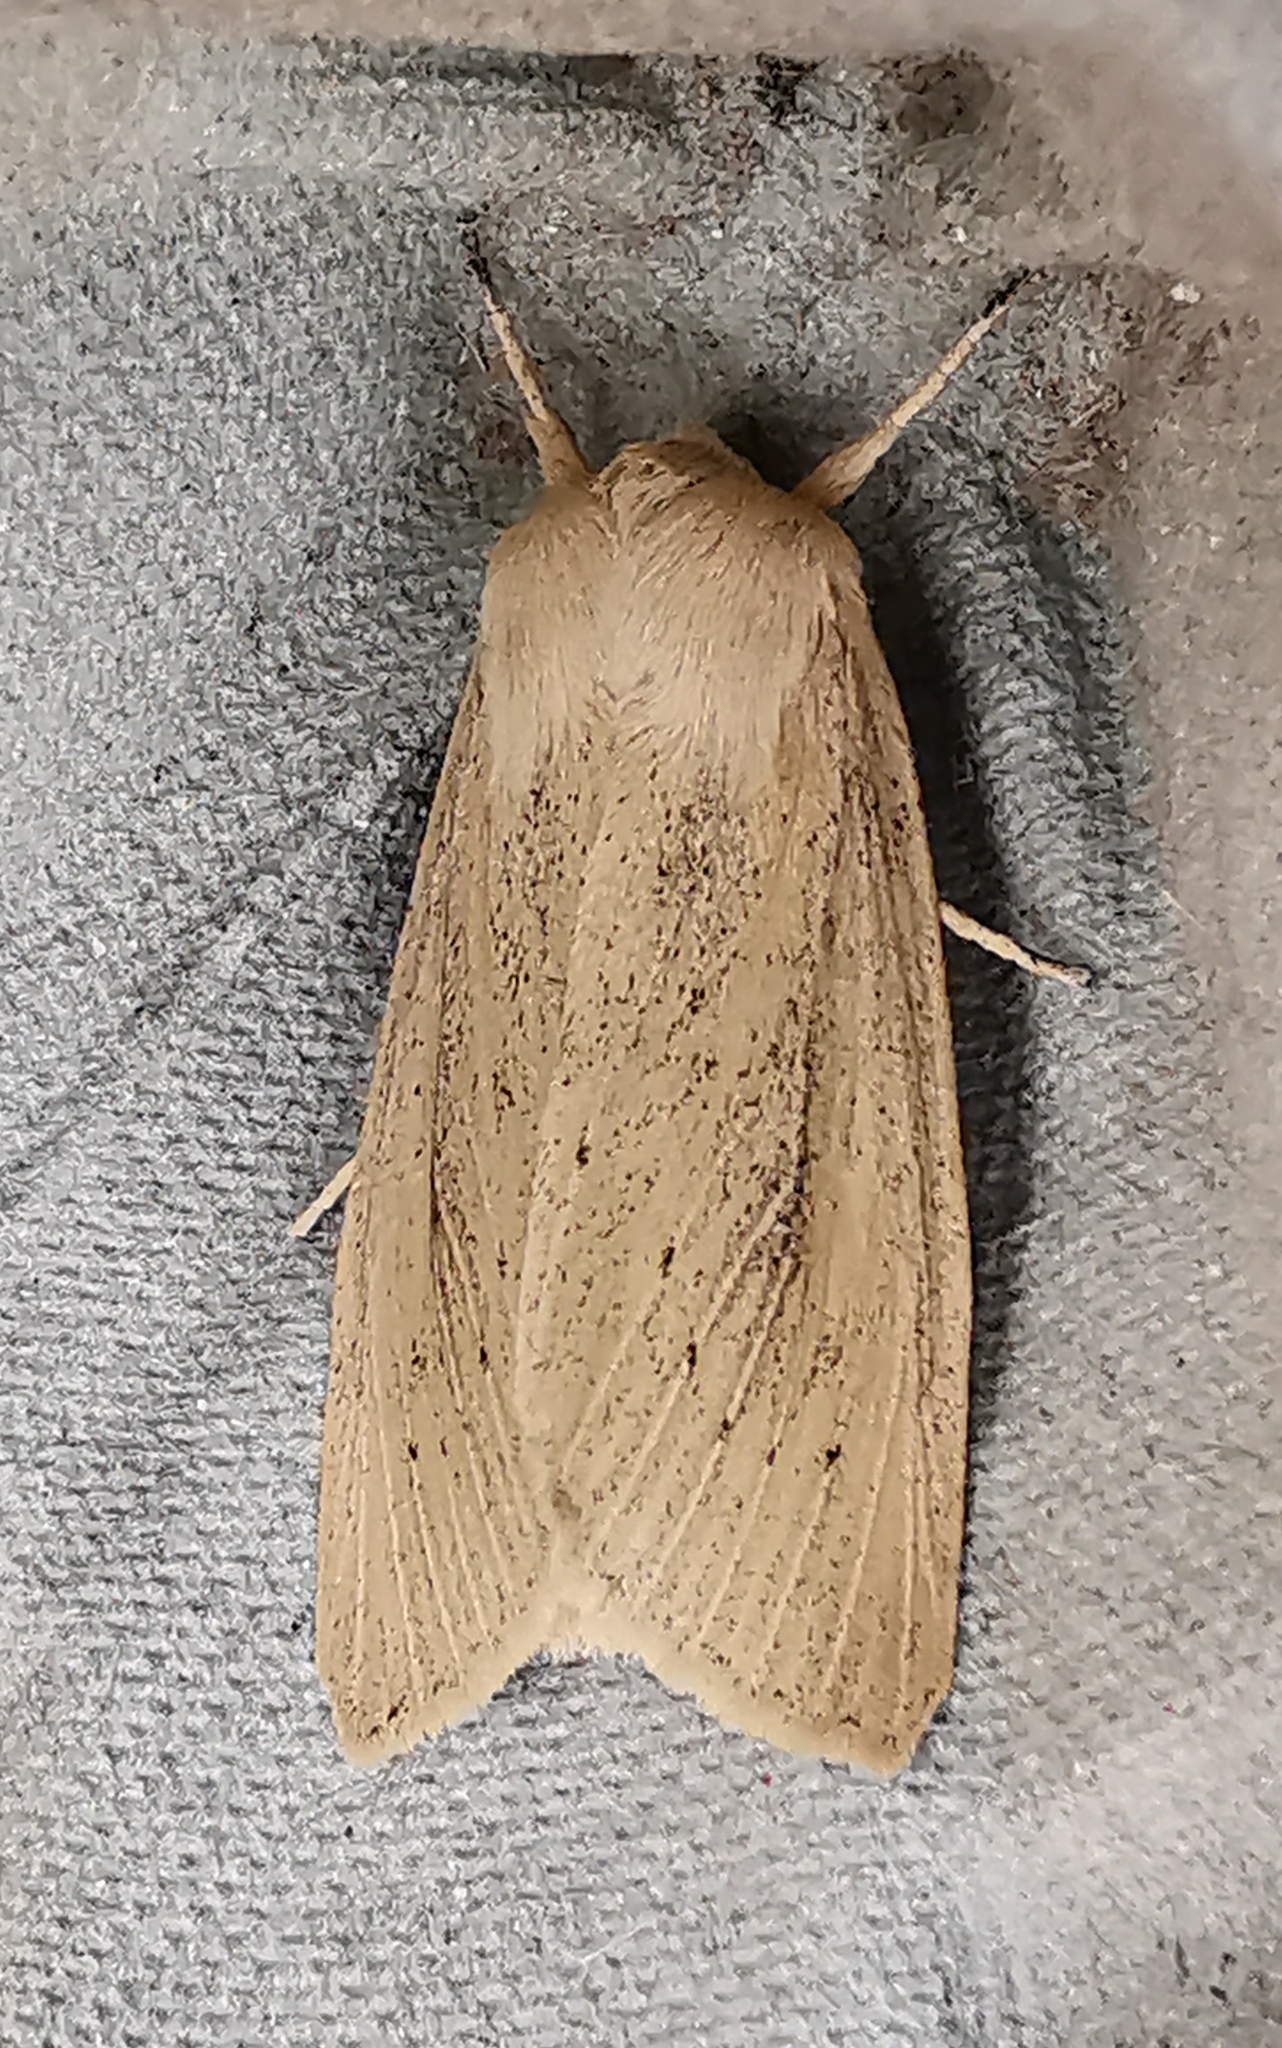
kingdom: Animalia
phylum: Arthropoda
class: Insecta
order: Lepidoptera
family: Noctuidae
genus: Rhizedra
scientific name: Rhizedra lutosa
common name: Large wainscot
